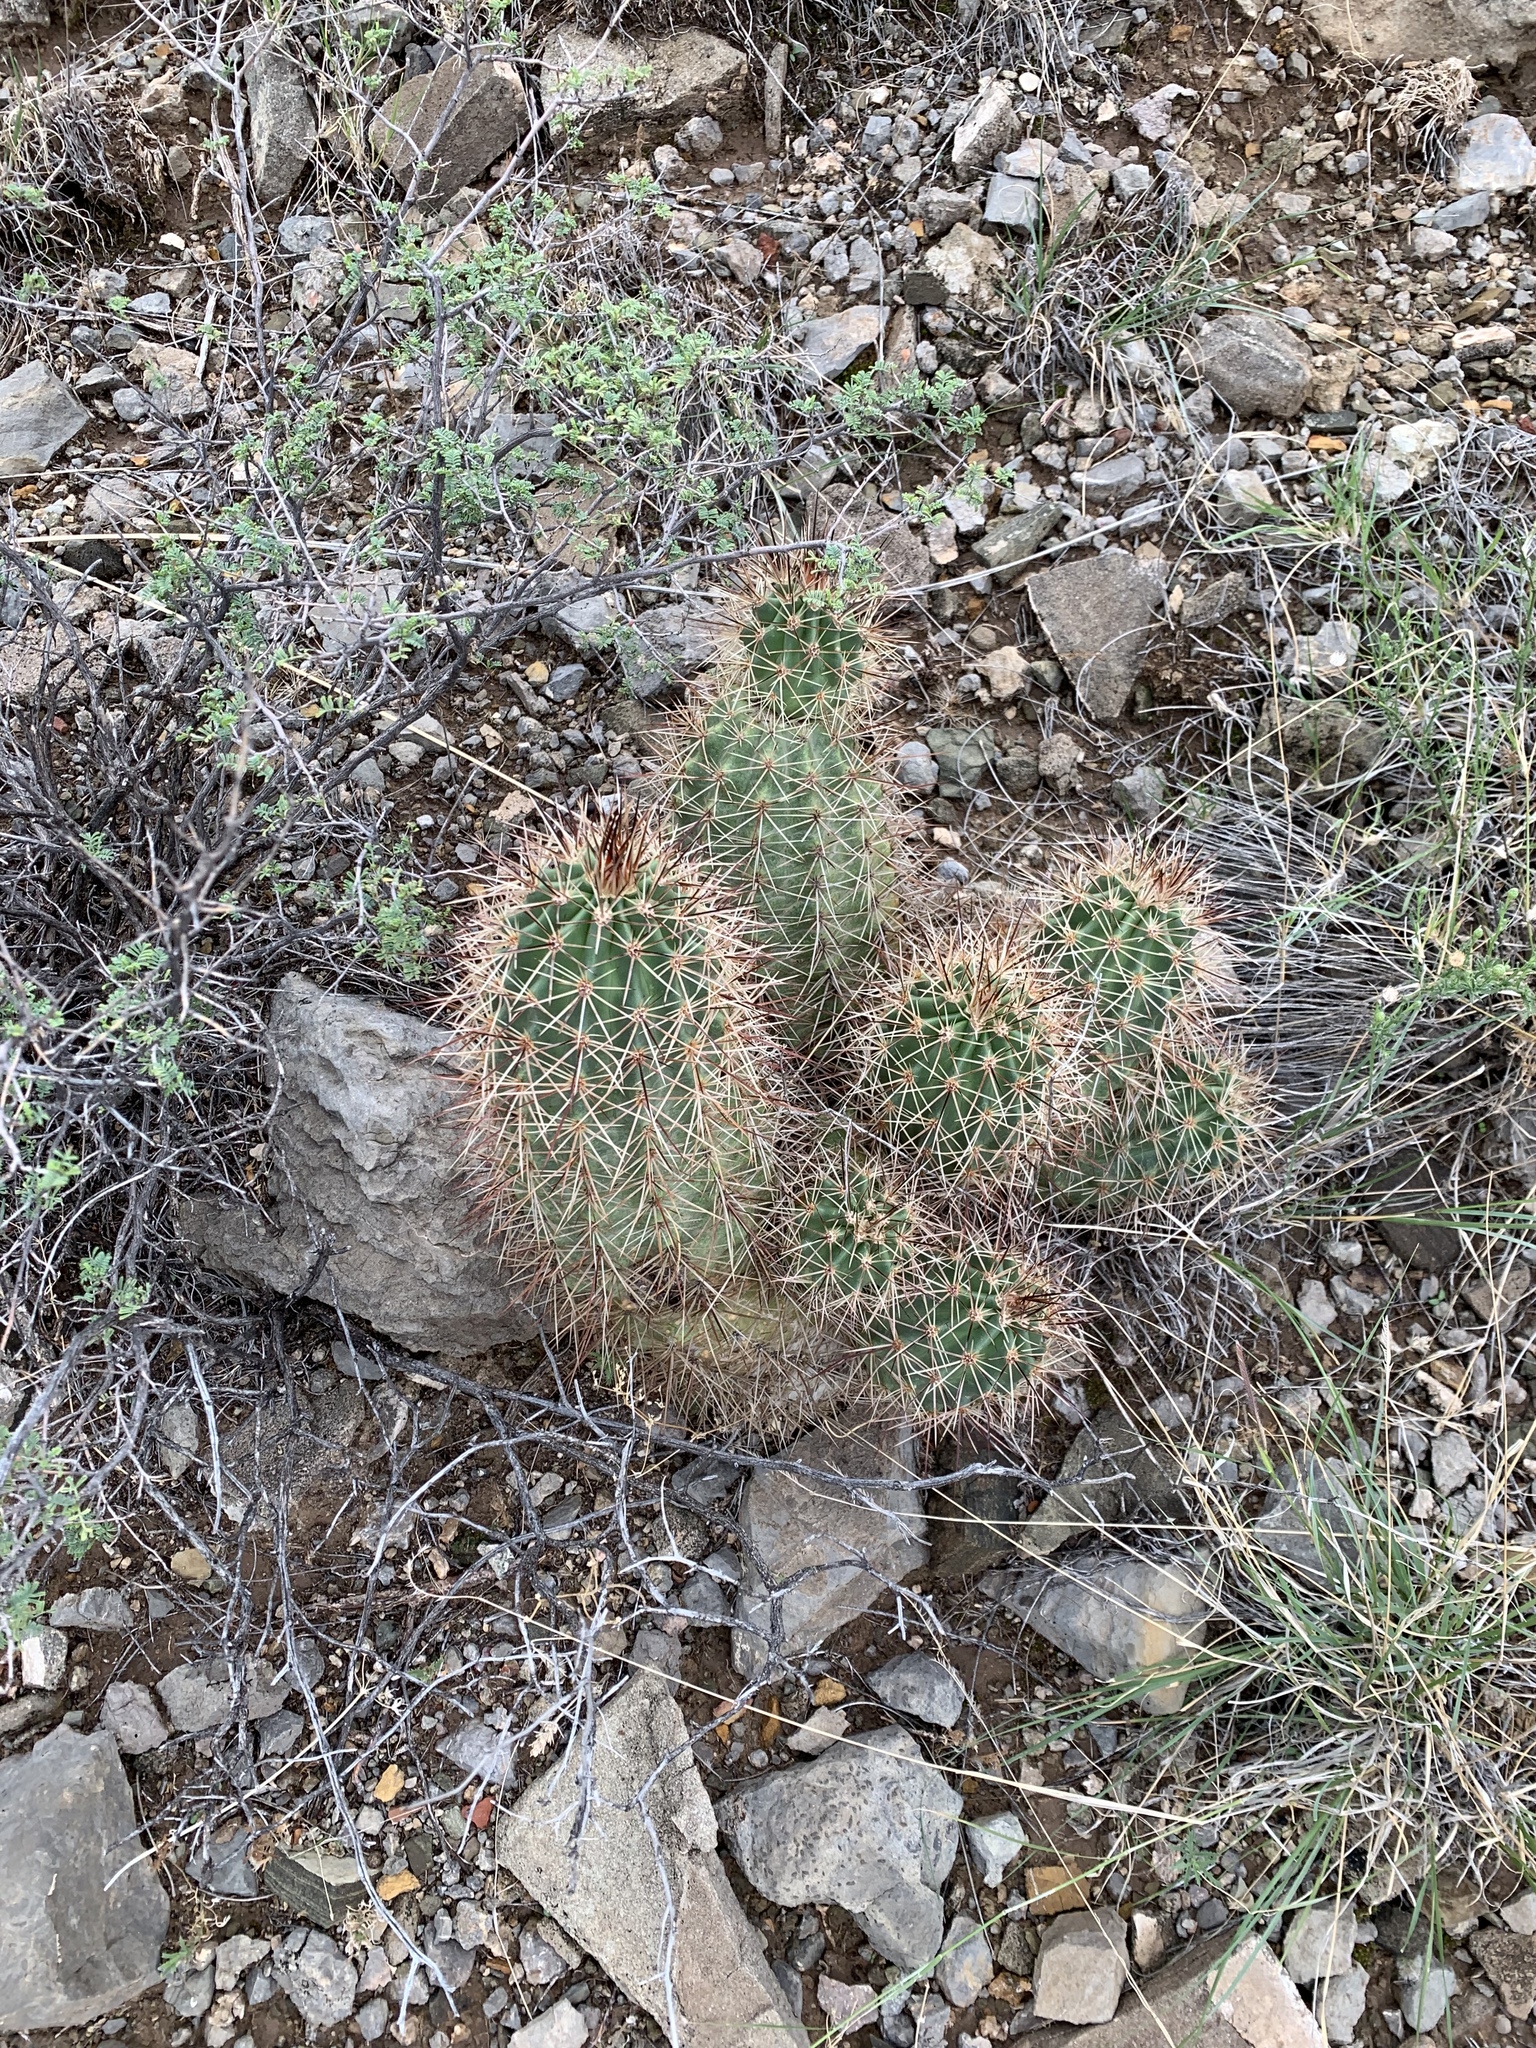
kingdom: Plantae
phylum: Tracheophyta
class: Magnoliopsida
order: Caryophyllales
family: Cactaceae
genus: Echinocereus
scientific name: Echinocereus coccineus
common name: Scarlet hedgehog cactus
